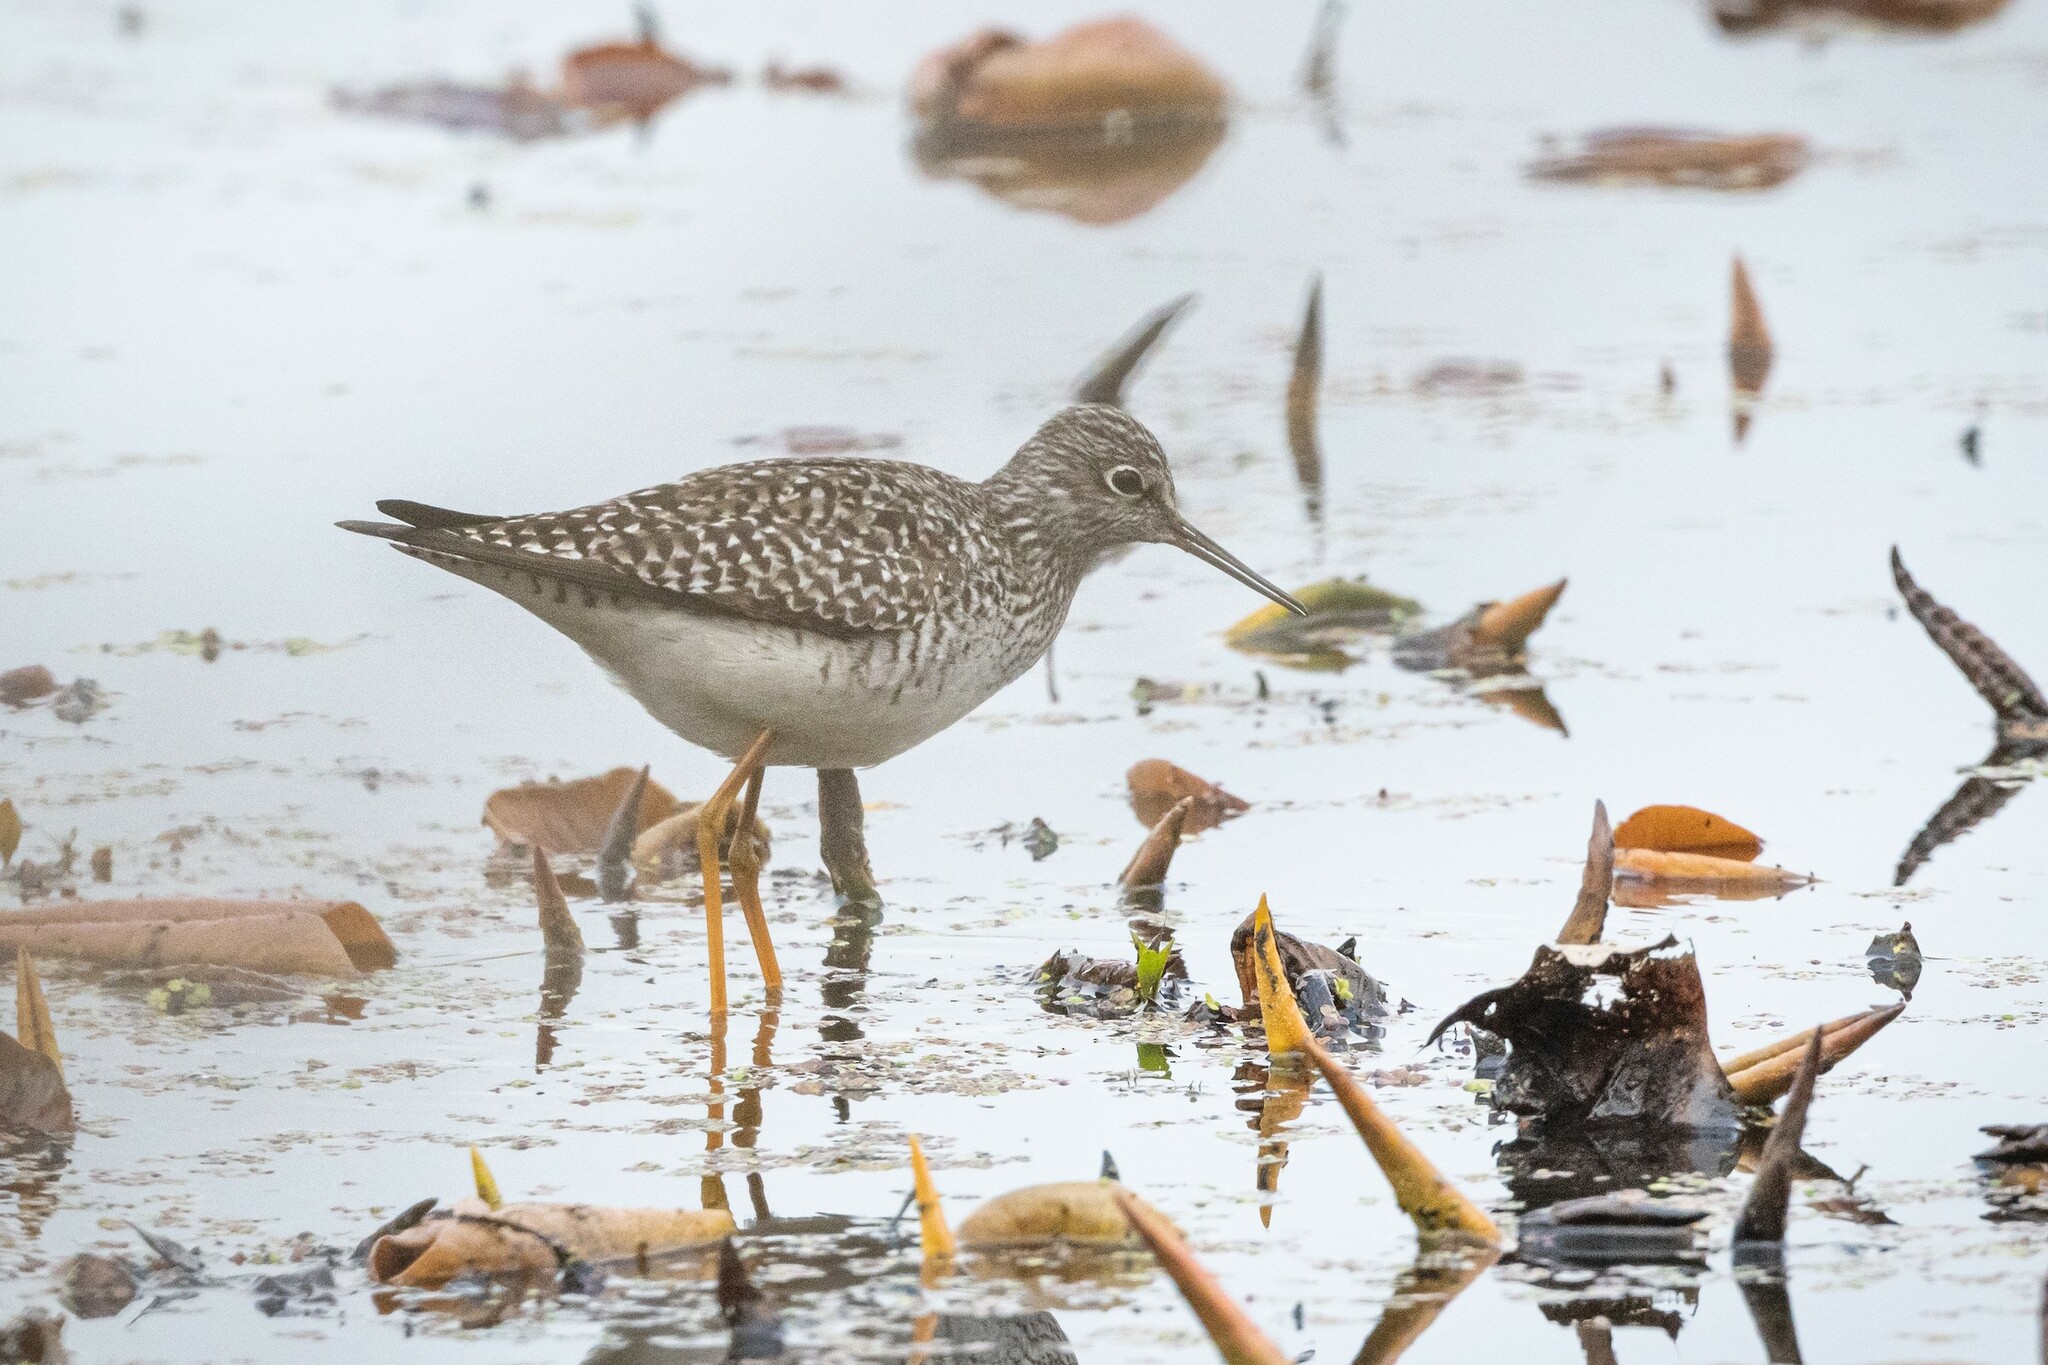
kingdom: Animalia
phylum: Chordata
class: Aves
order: Charadriiformes
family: Scolopacidae
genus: Tringa
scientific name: Tringa flavipes
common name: Lesser yellowlegs
